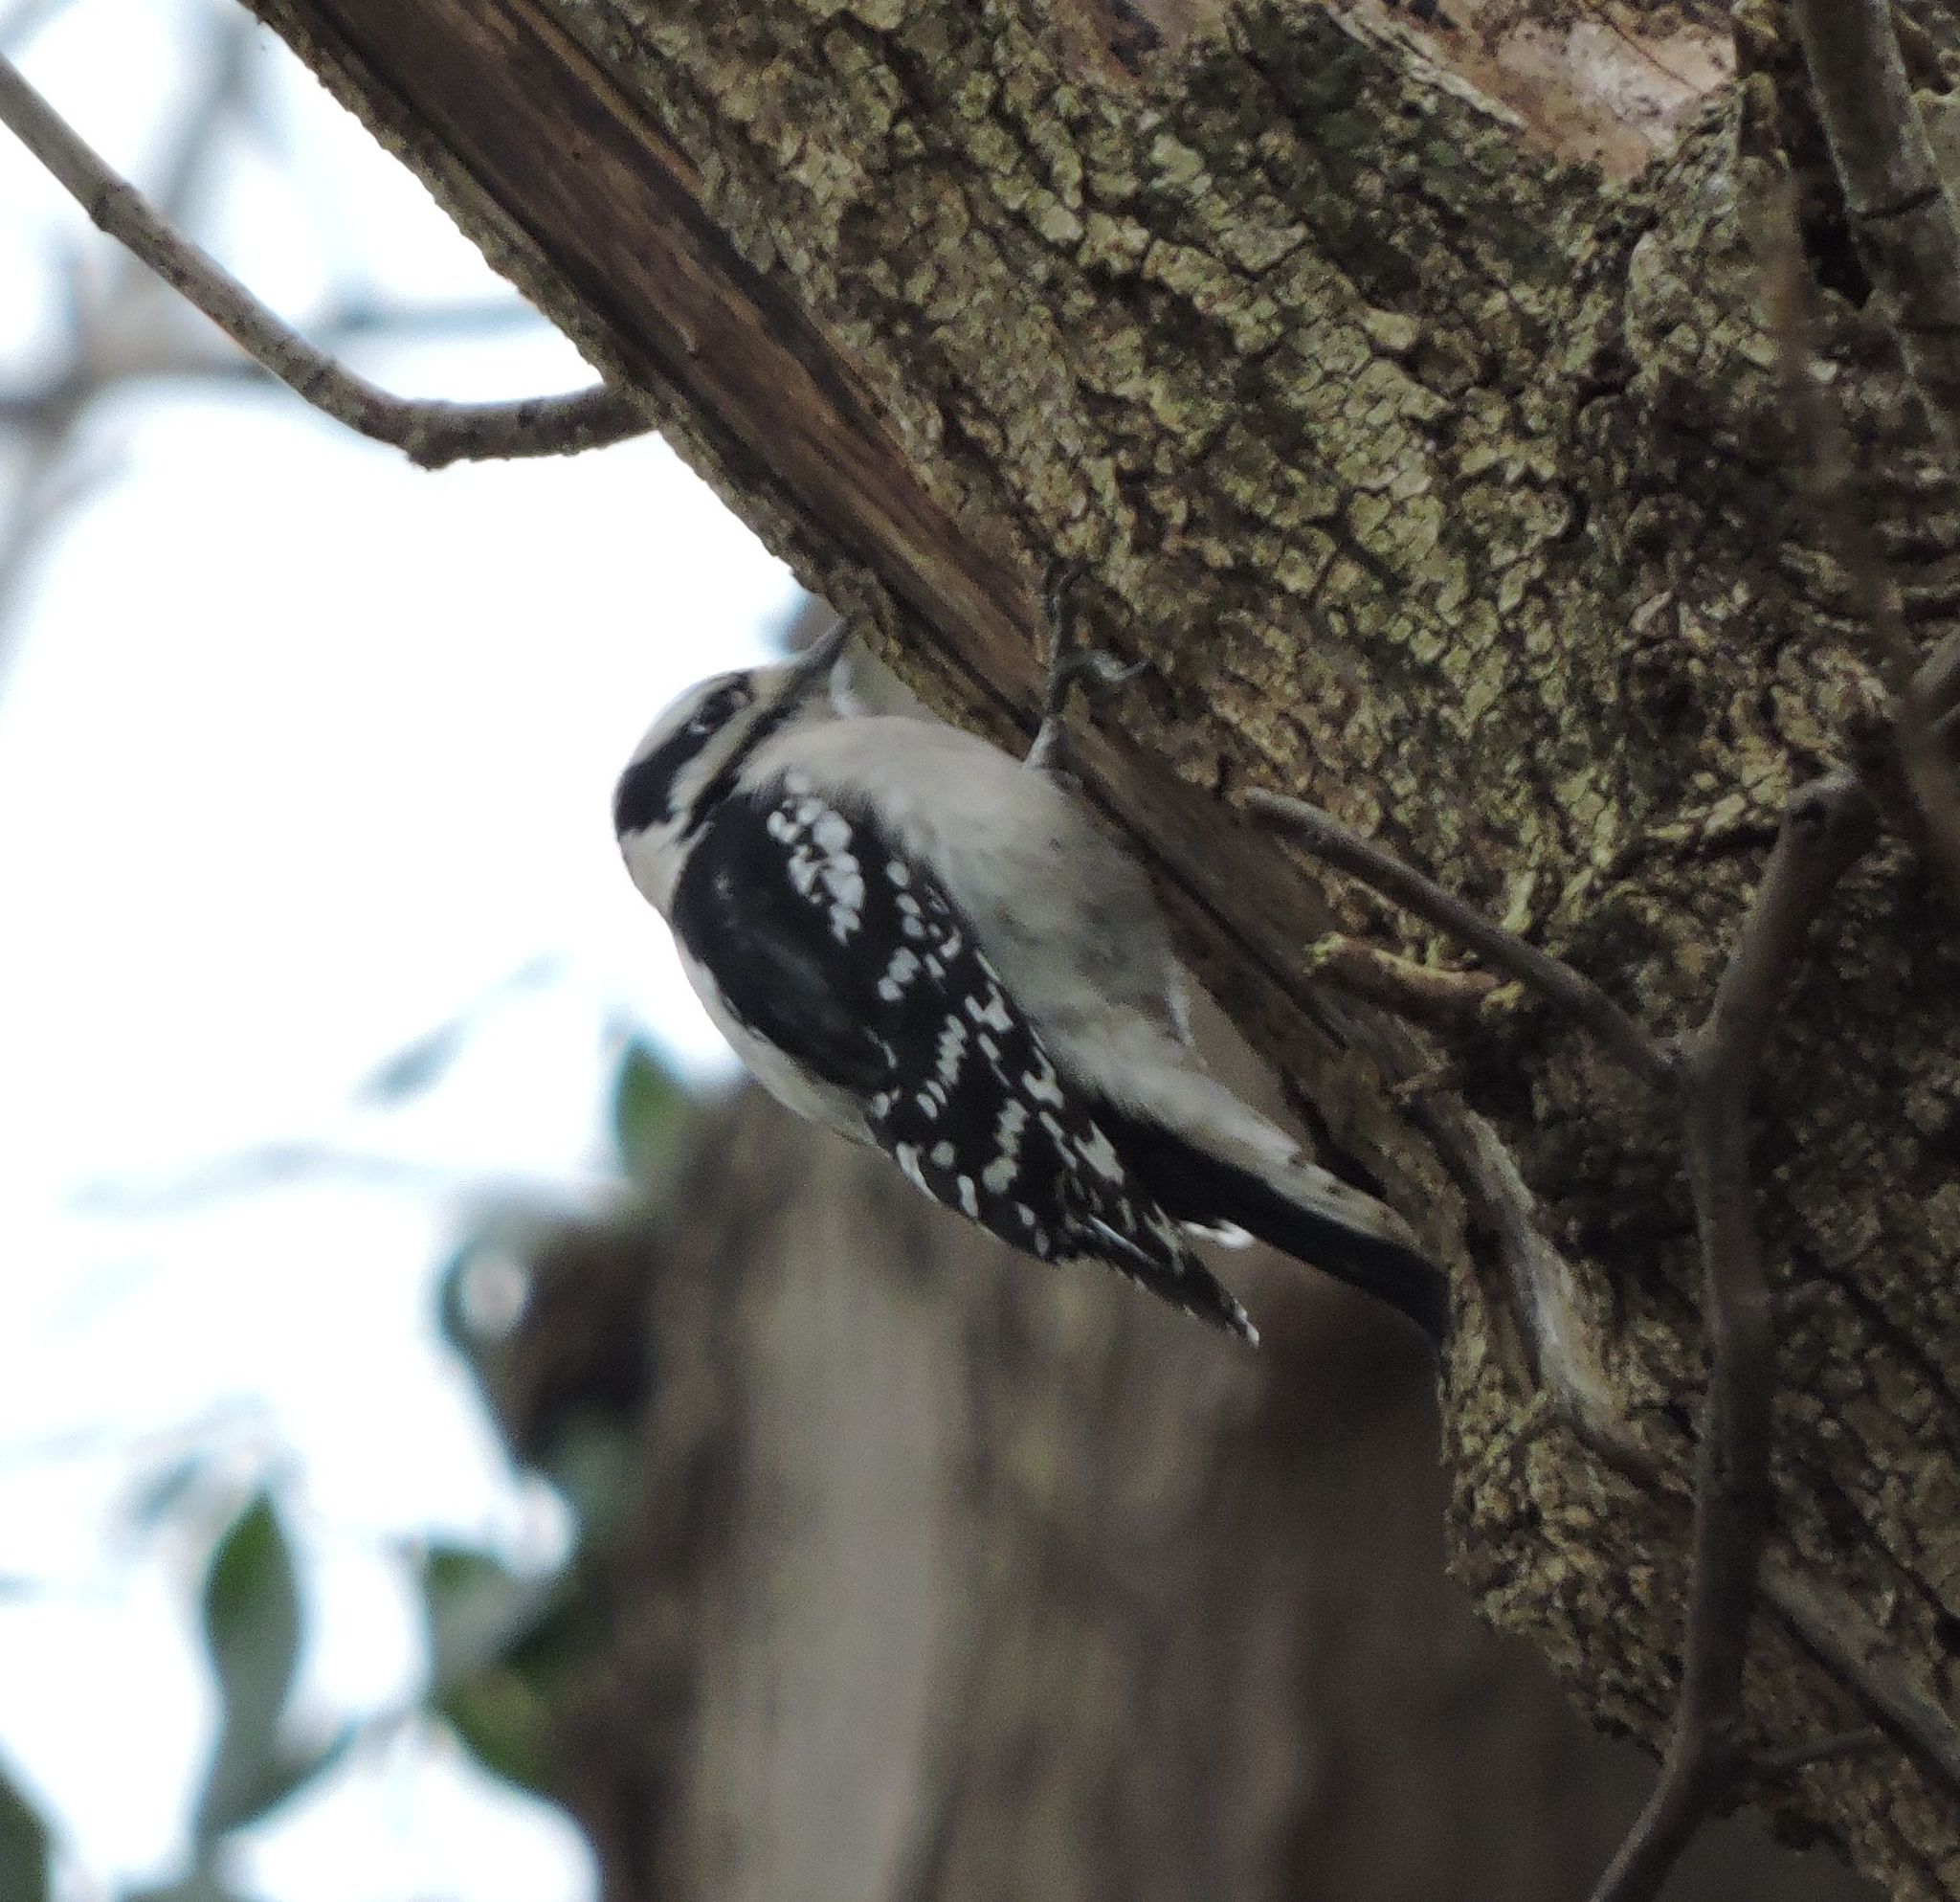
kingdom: Animalia
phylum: Chordata
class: Aves
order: Piciformes
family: Picidae
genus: Dryobates
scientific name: Dryobates pubescens
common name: Downy woodpecker
